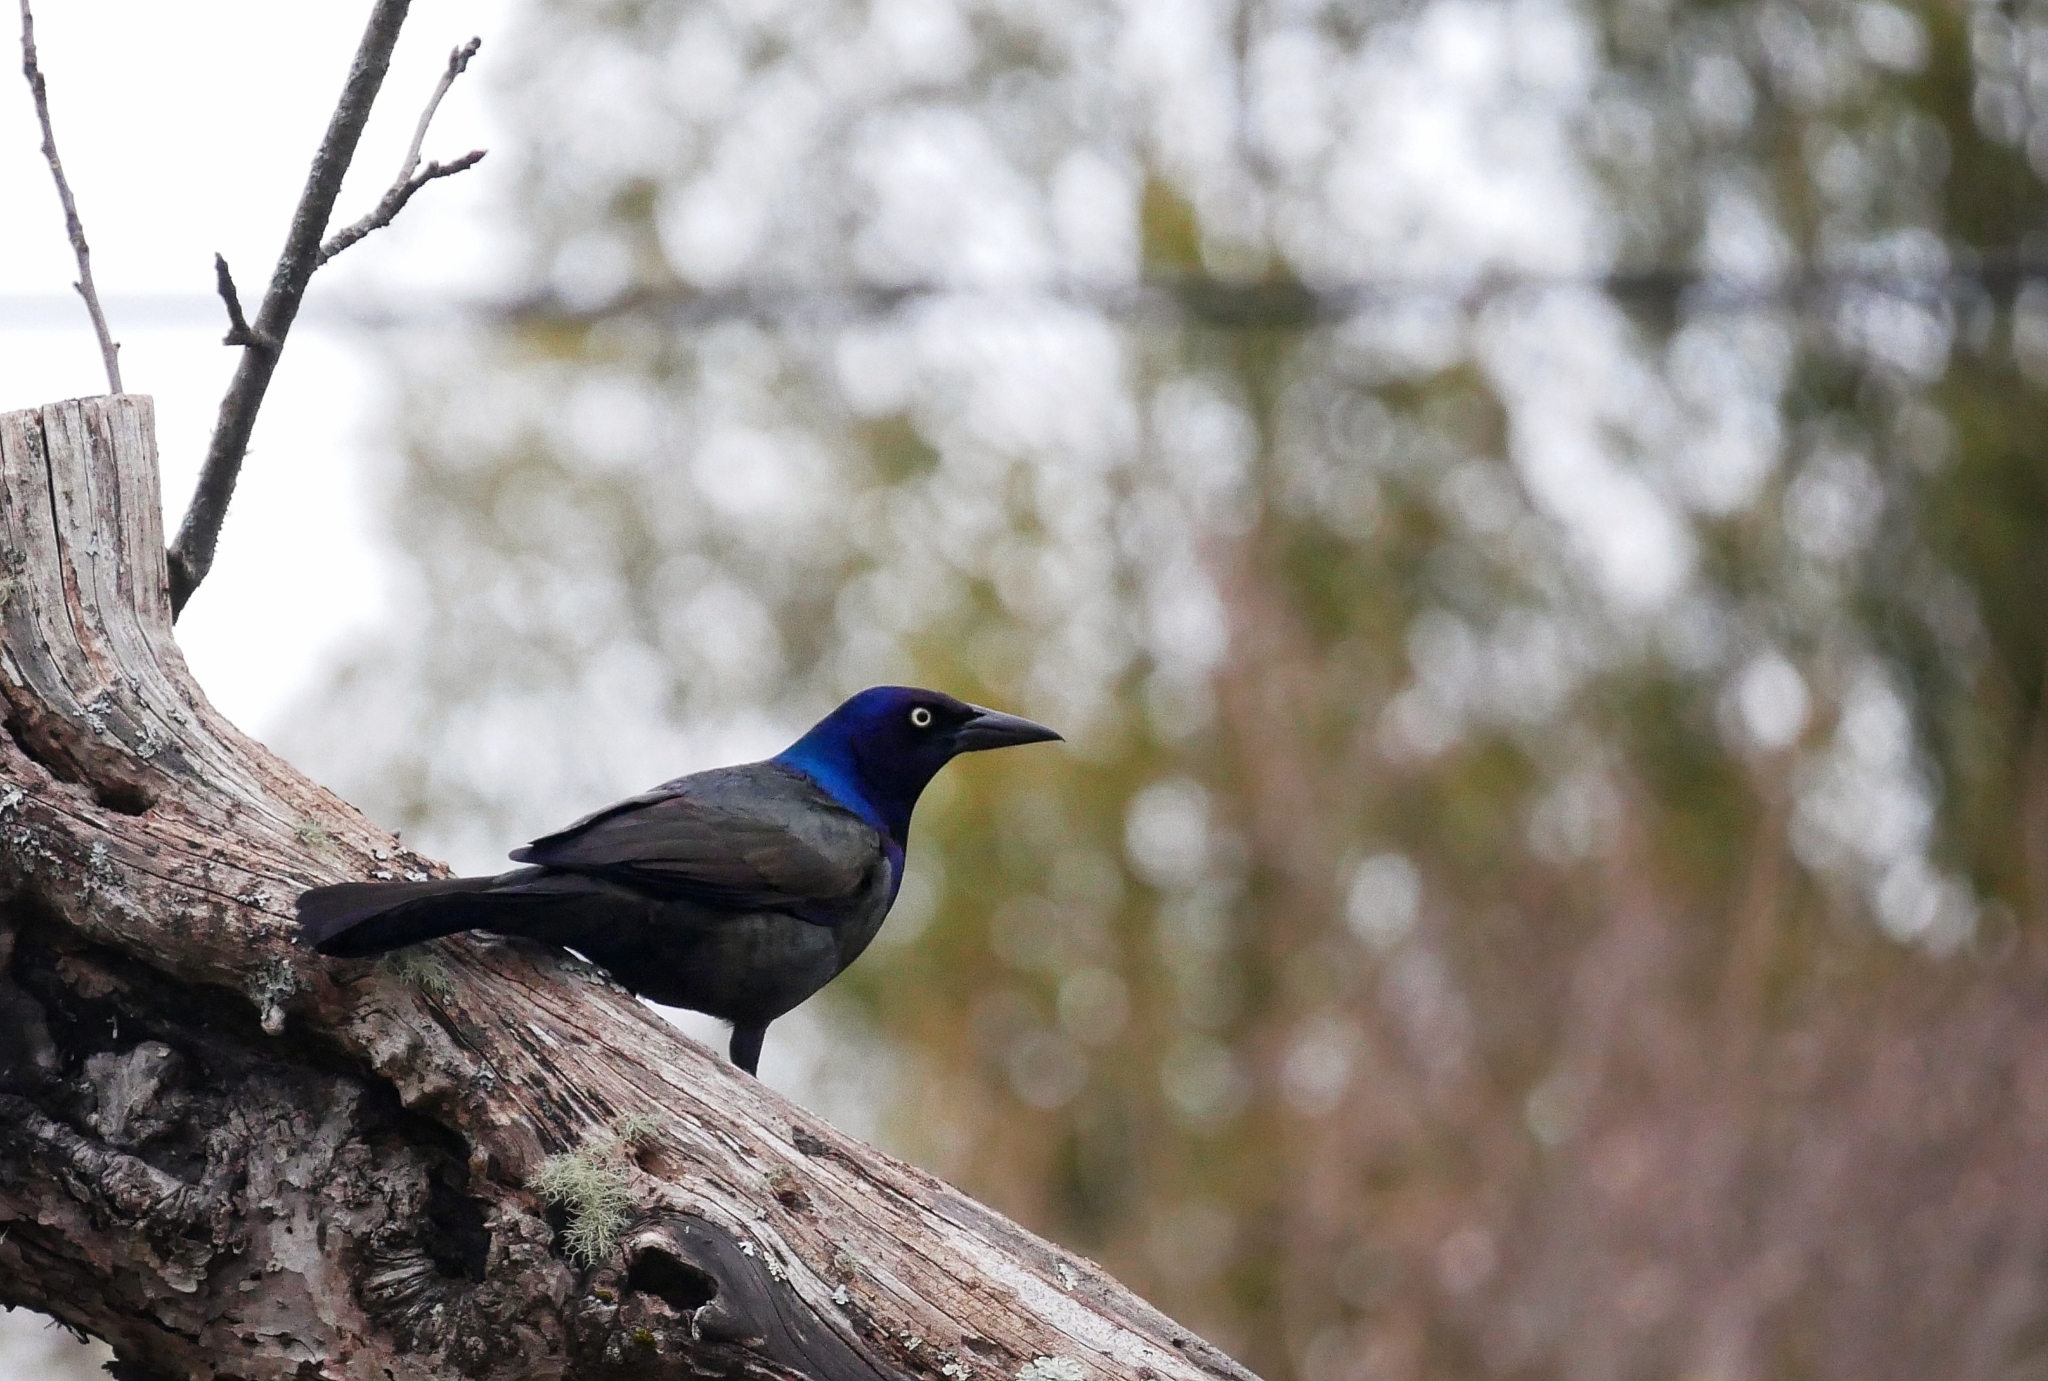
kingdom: Animalia
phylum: Chordata
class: Aves
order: Passeriformes
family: Icteridae
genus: Quiscalus
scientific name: Quiscalus quiscula
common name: Common grackle
